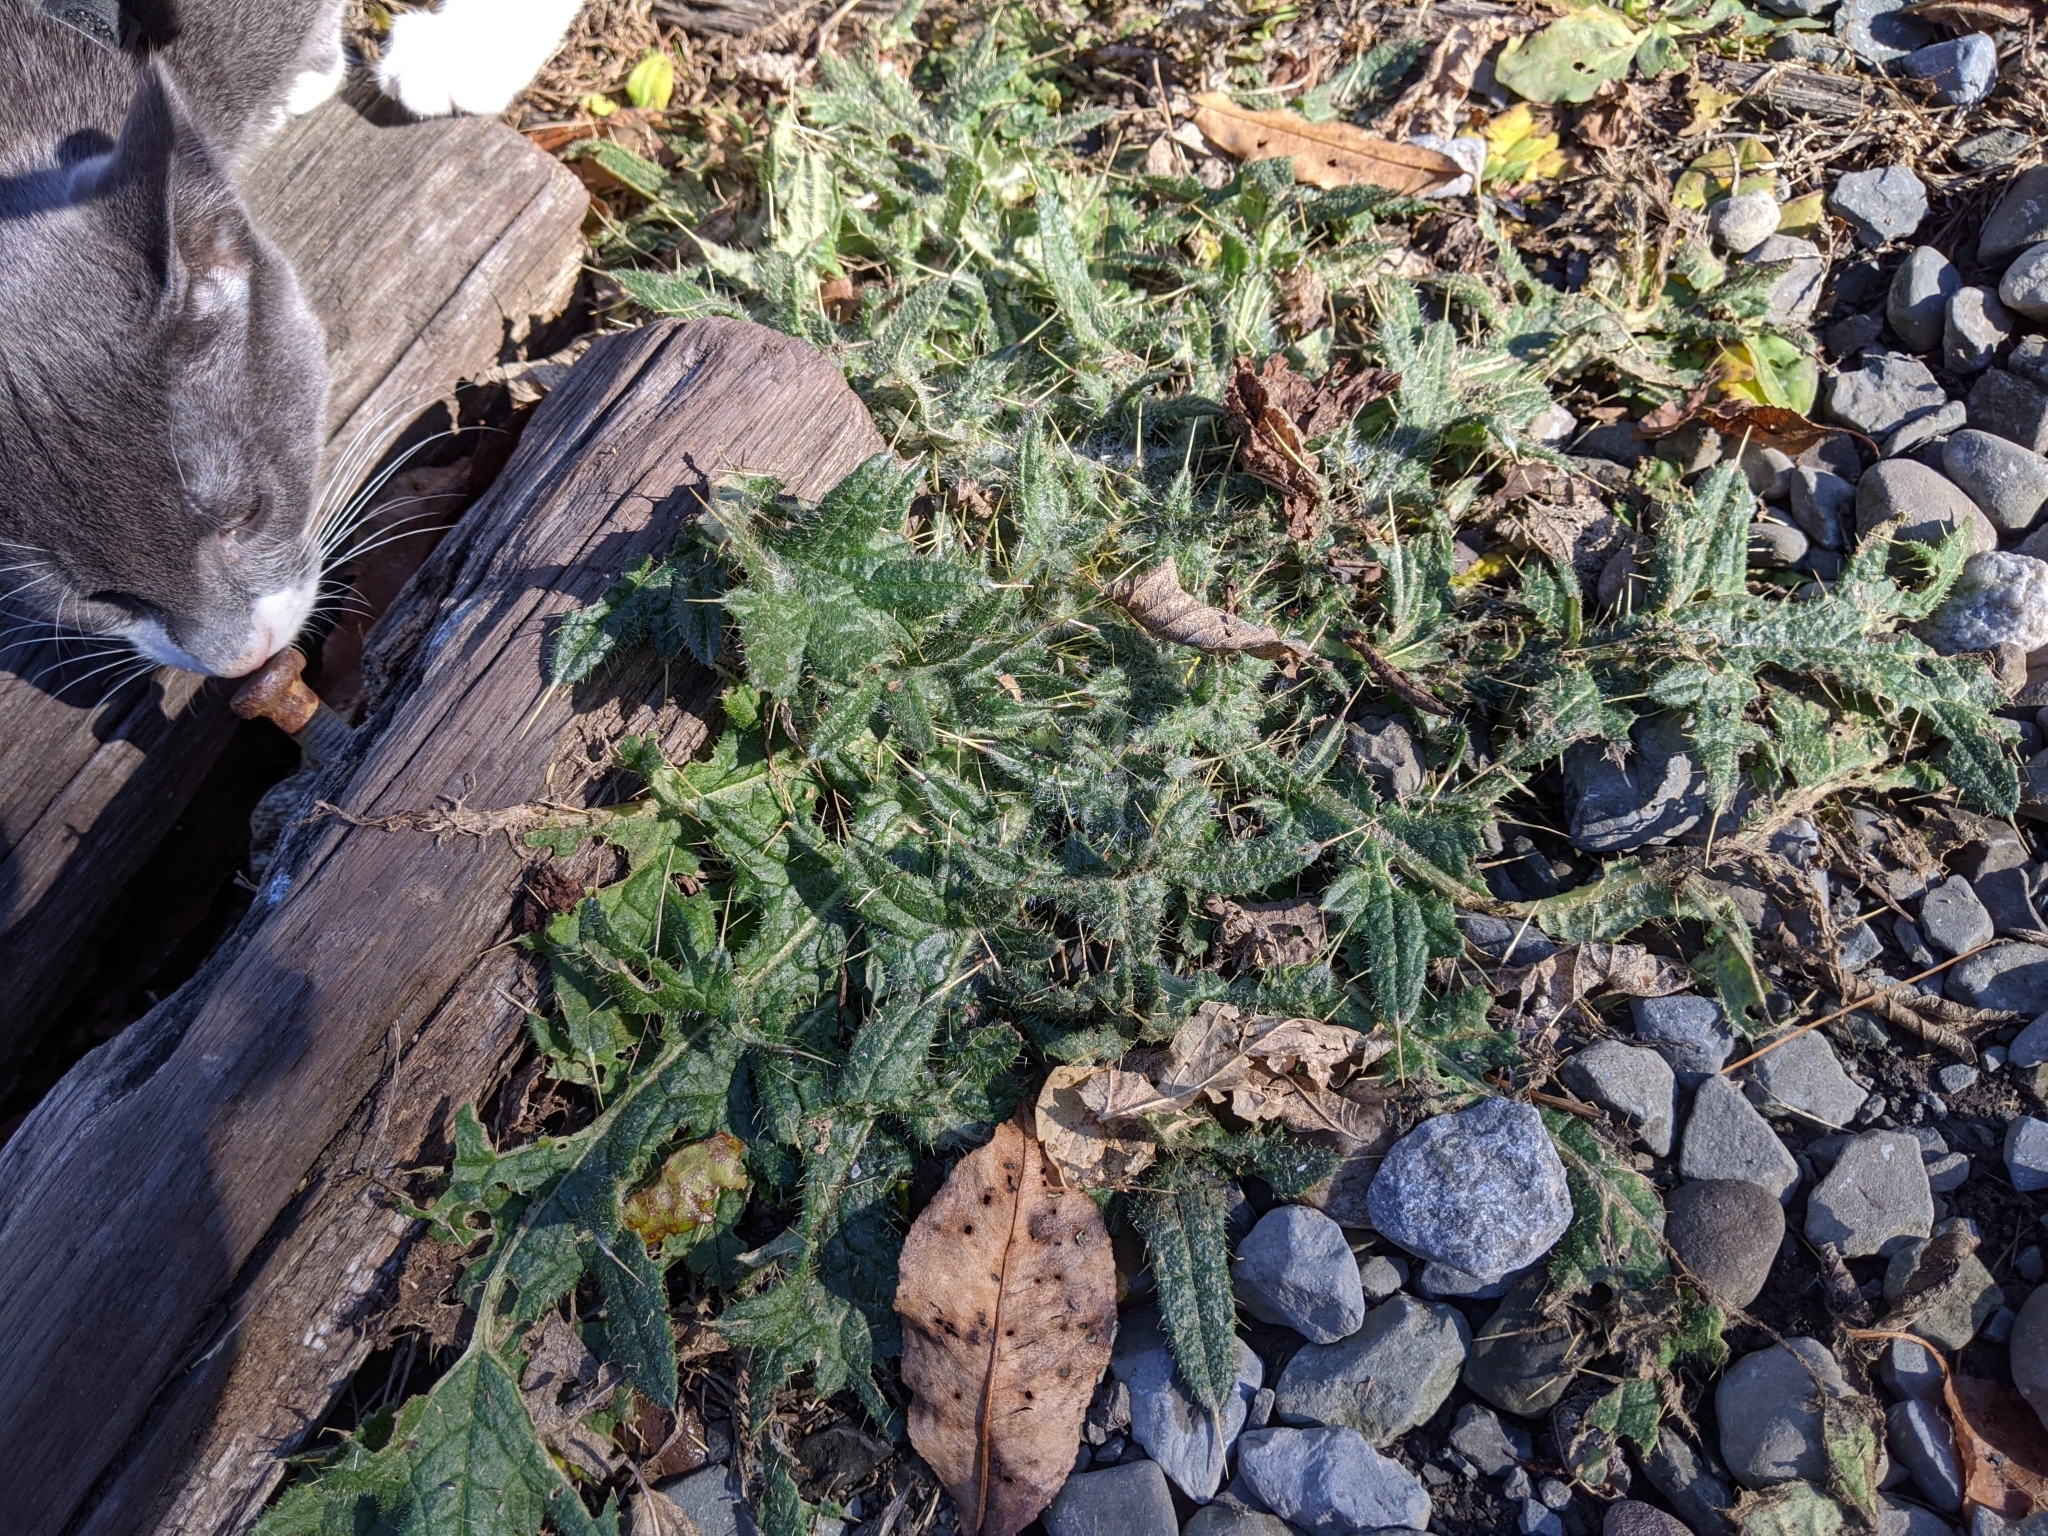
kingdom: Plantae
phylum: Tracheophyta
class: Magnoliopsida
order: Asterales
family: Asteraceae
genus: Cirsium
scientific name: Cirsium vulgare
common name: Bull thistle
